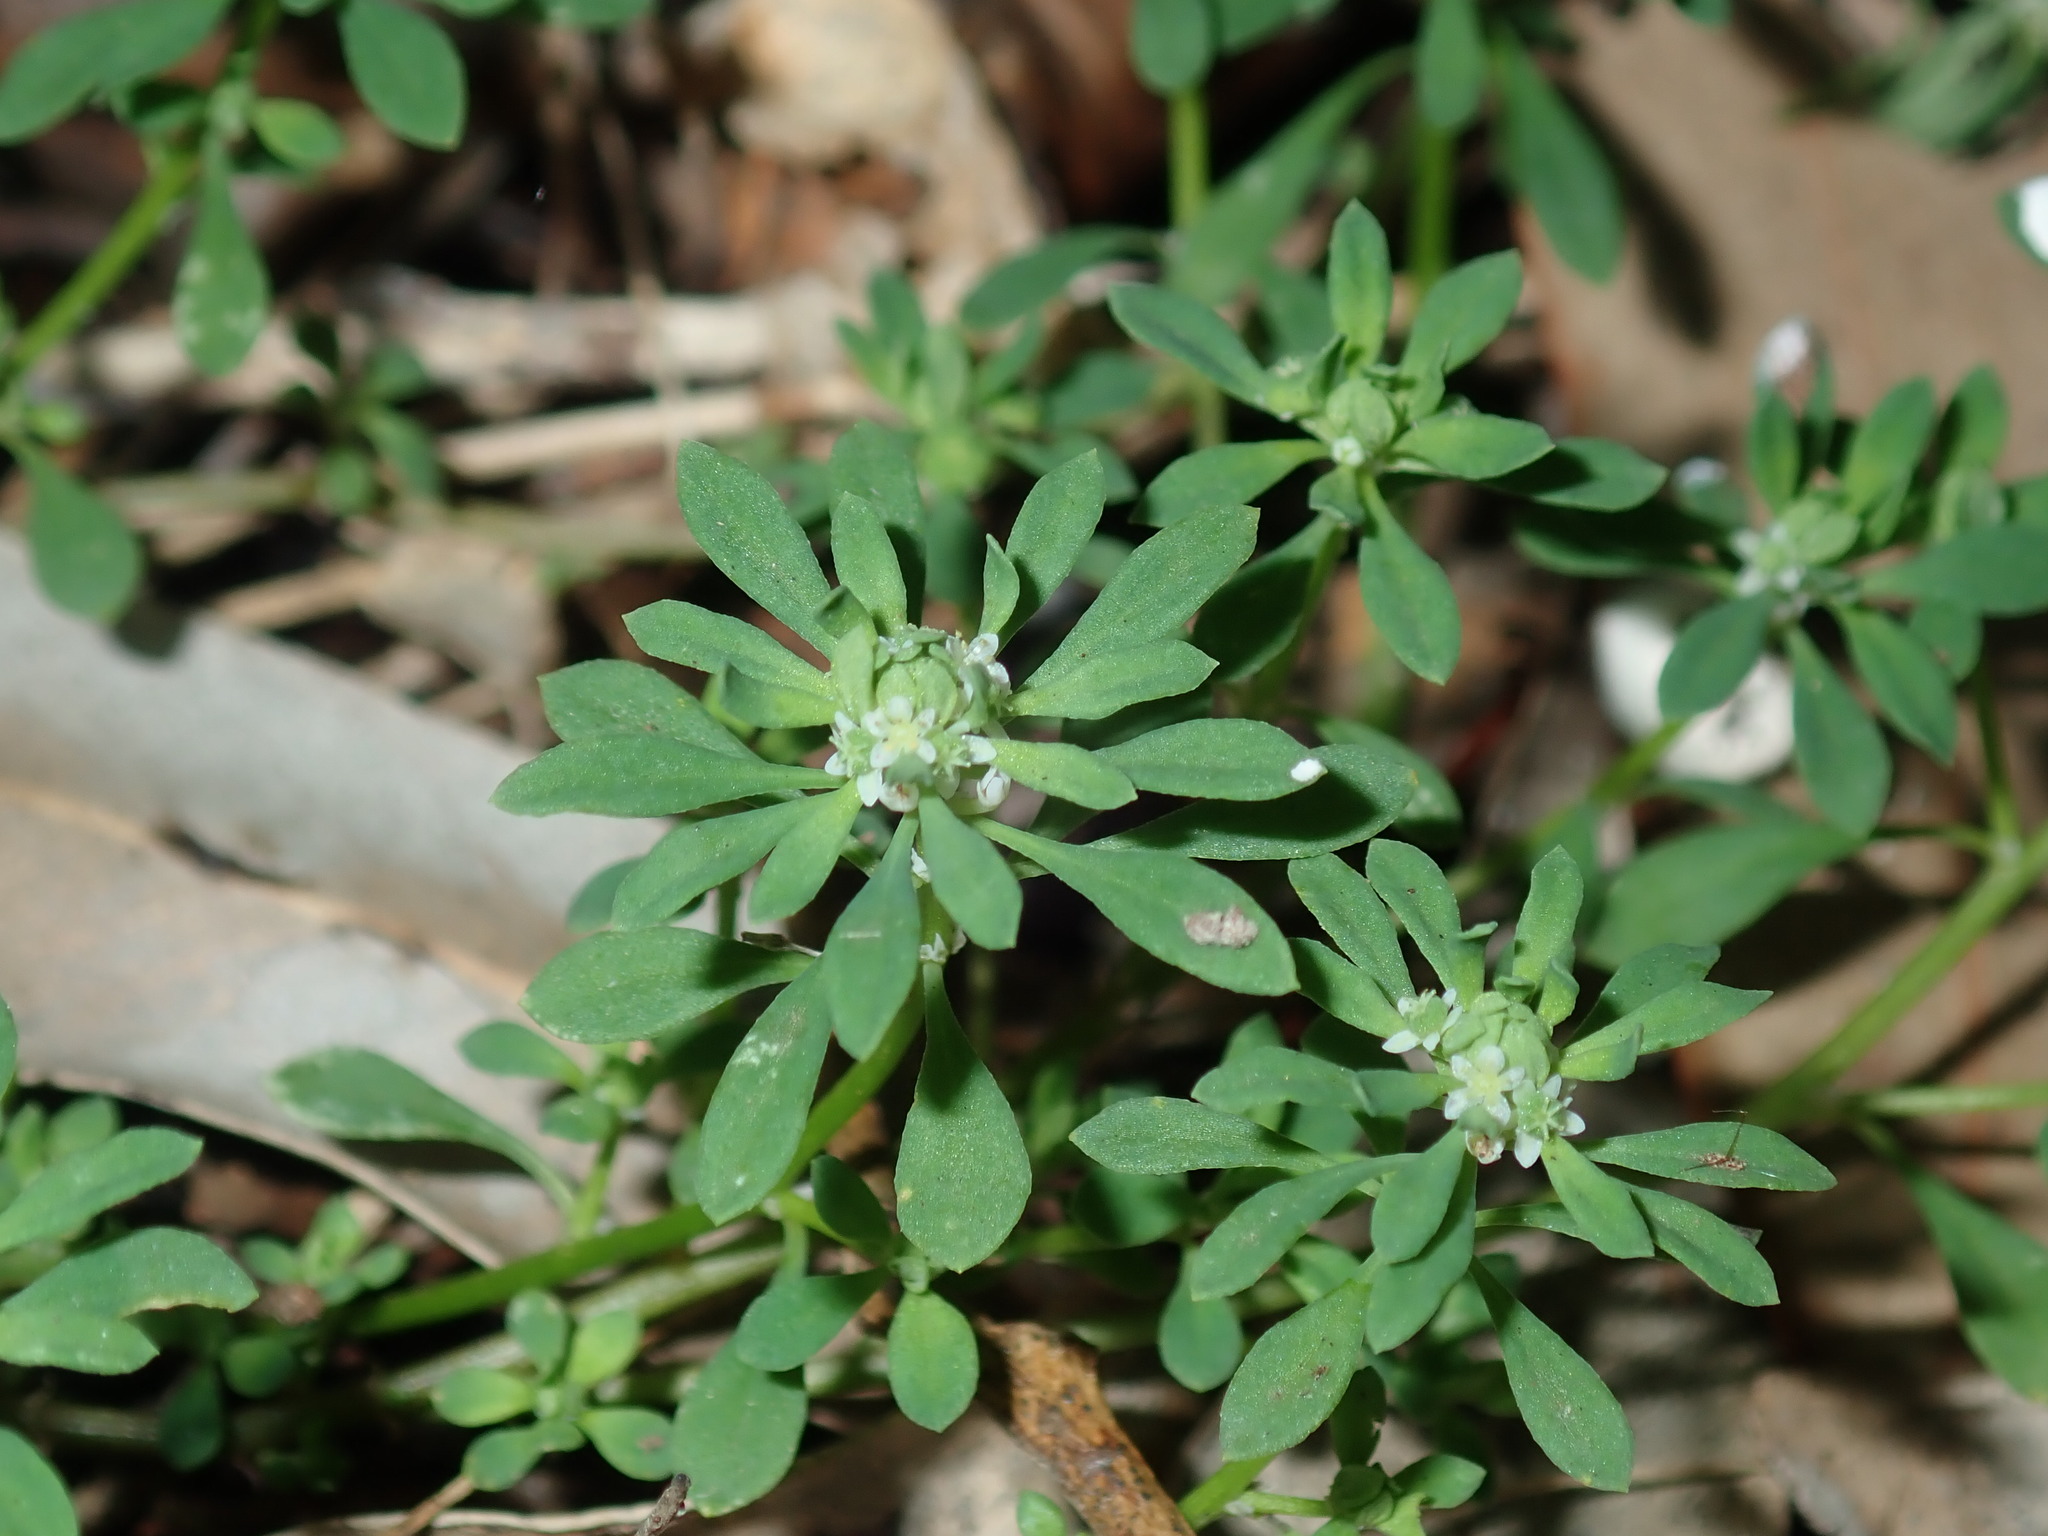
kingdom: Plantae
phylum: Tracheophyta
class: Magnoliopsida
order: Malpighiales
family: Phyllanthaceae
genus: Poranthera
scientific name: Poranthera microphylla
